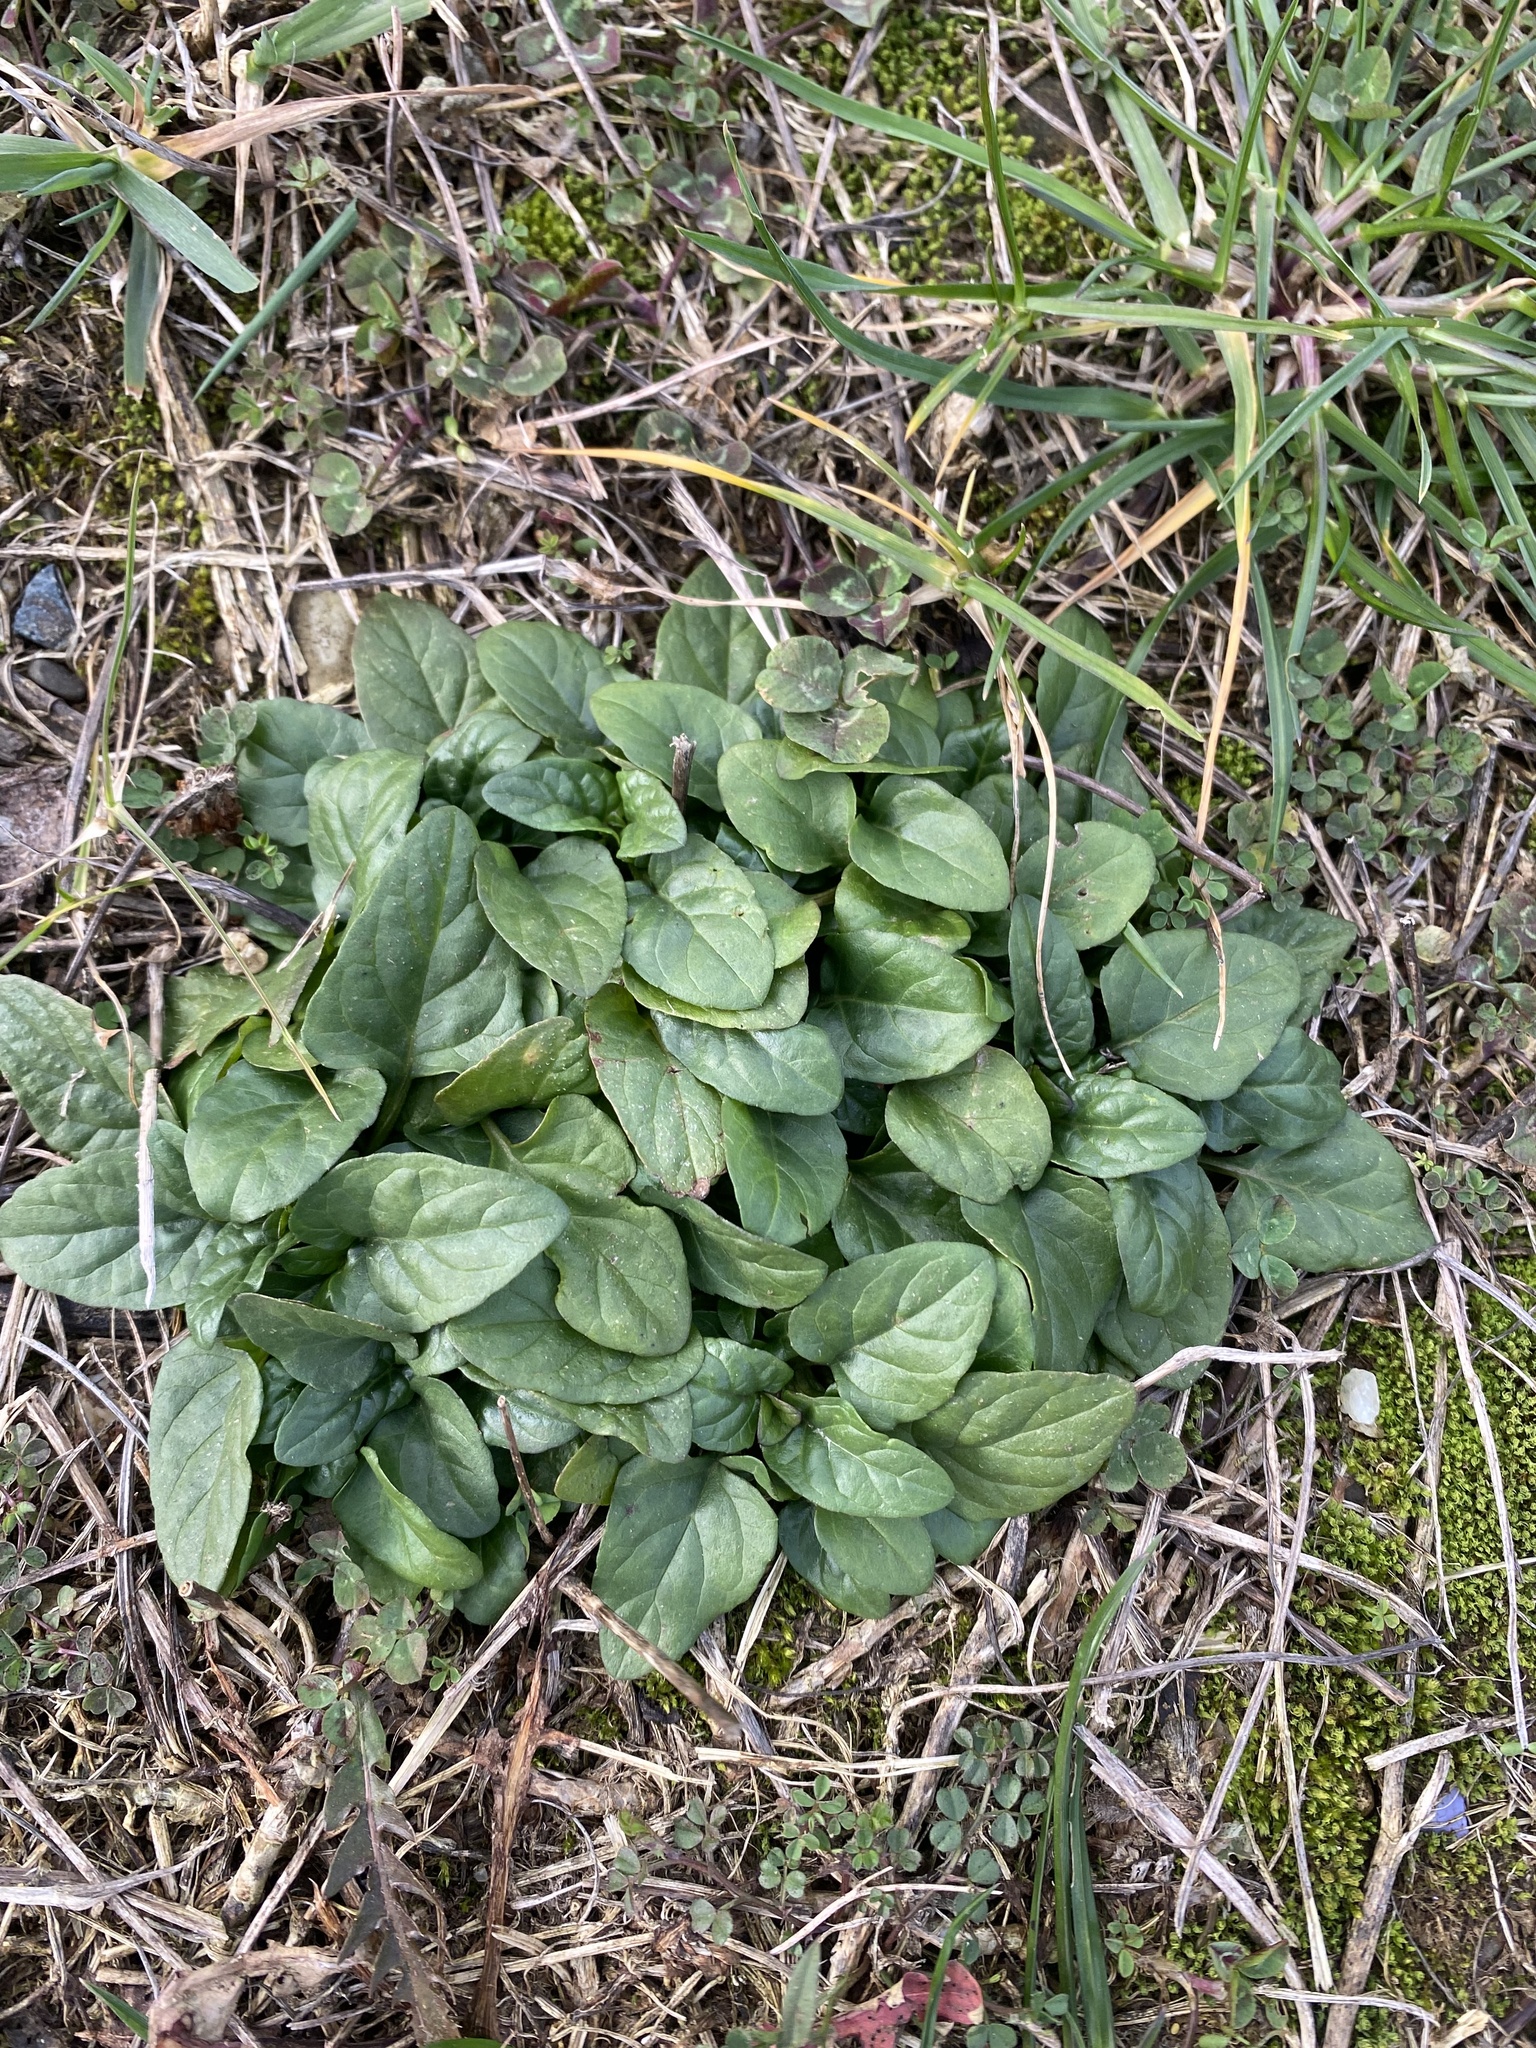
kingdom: Plantae
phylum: Tracheophyta
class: Magnoliopsida
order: Lamiales
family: Lamiaceae
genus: Prunella
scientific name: Prunella vulgaris
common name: Heal-all
